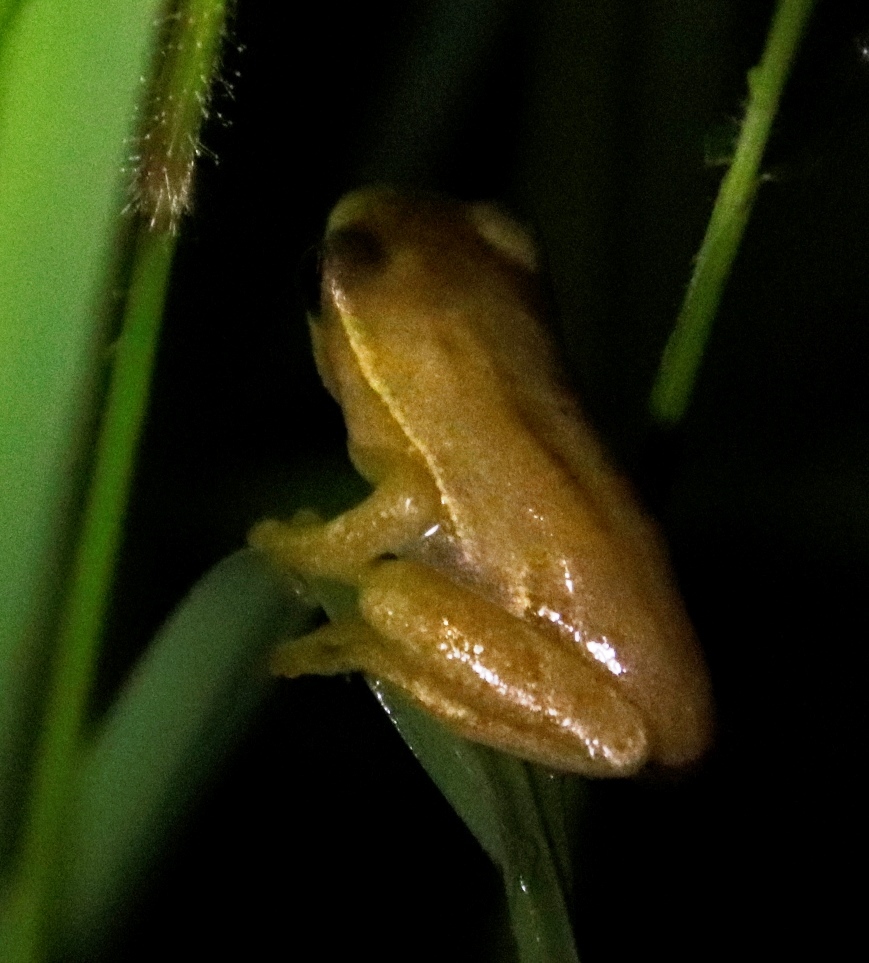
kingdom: Animalia
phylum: Chordata
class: Amphibia
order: Anura
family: Hyperoliidae
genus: Hyperolius
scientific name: Hyperolius marmoratus
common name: Painted reed frog
